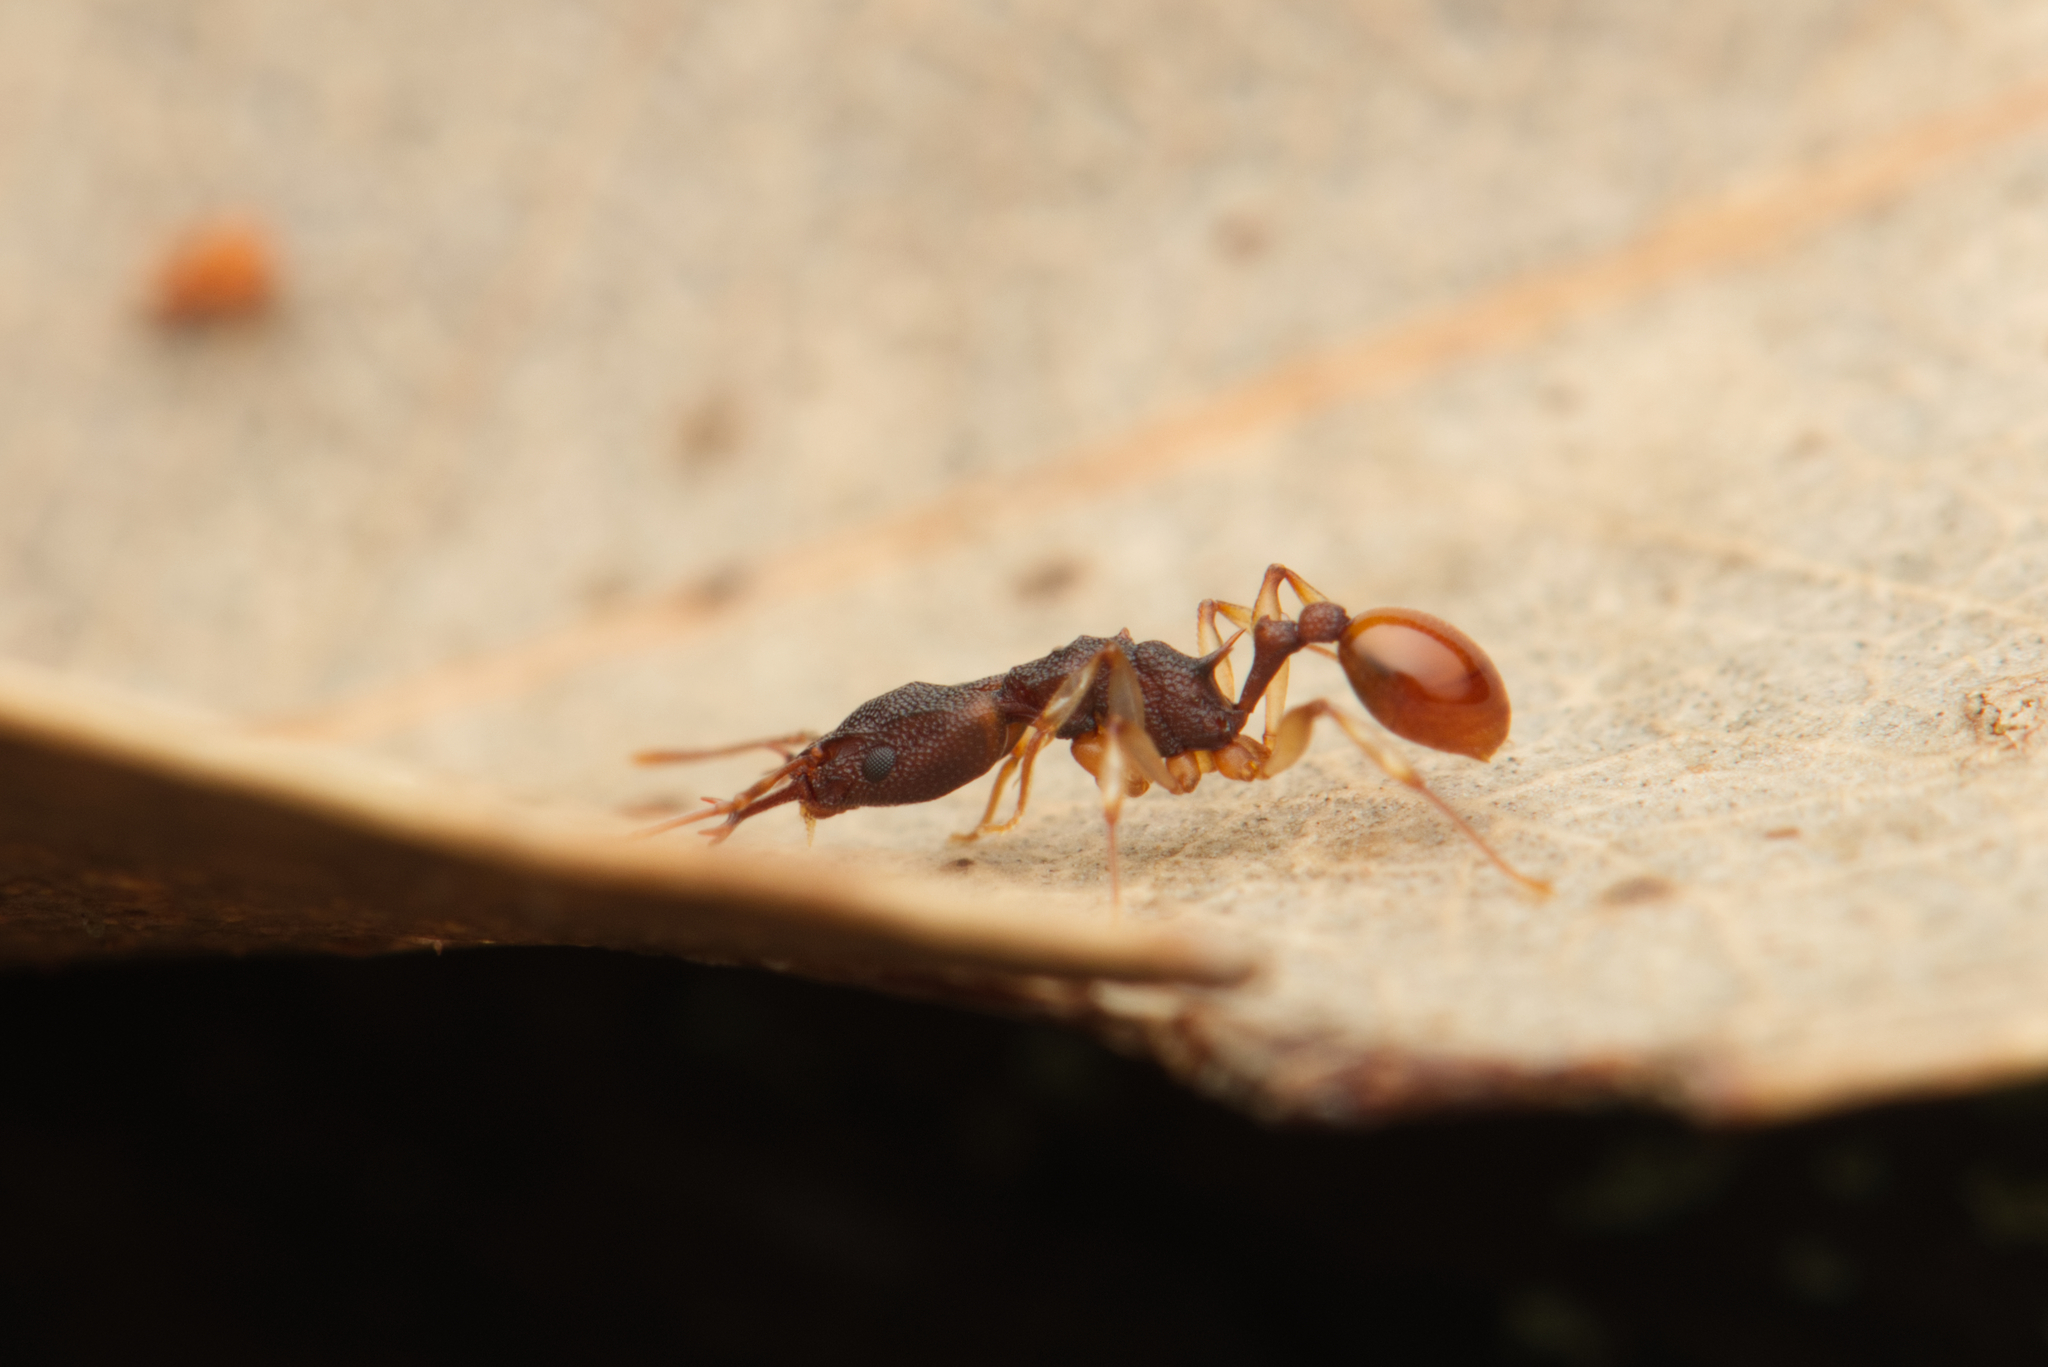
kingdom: Animalia
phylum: Arthropoda
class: Insecta
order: Hymenoptera
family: Formicidae
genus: Orectognathus
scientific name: Orectognathus mjobergi
